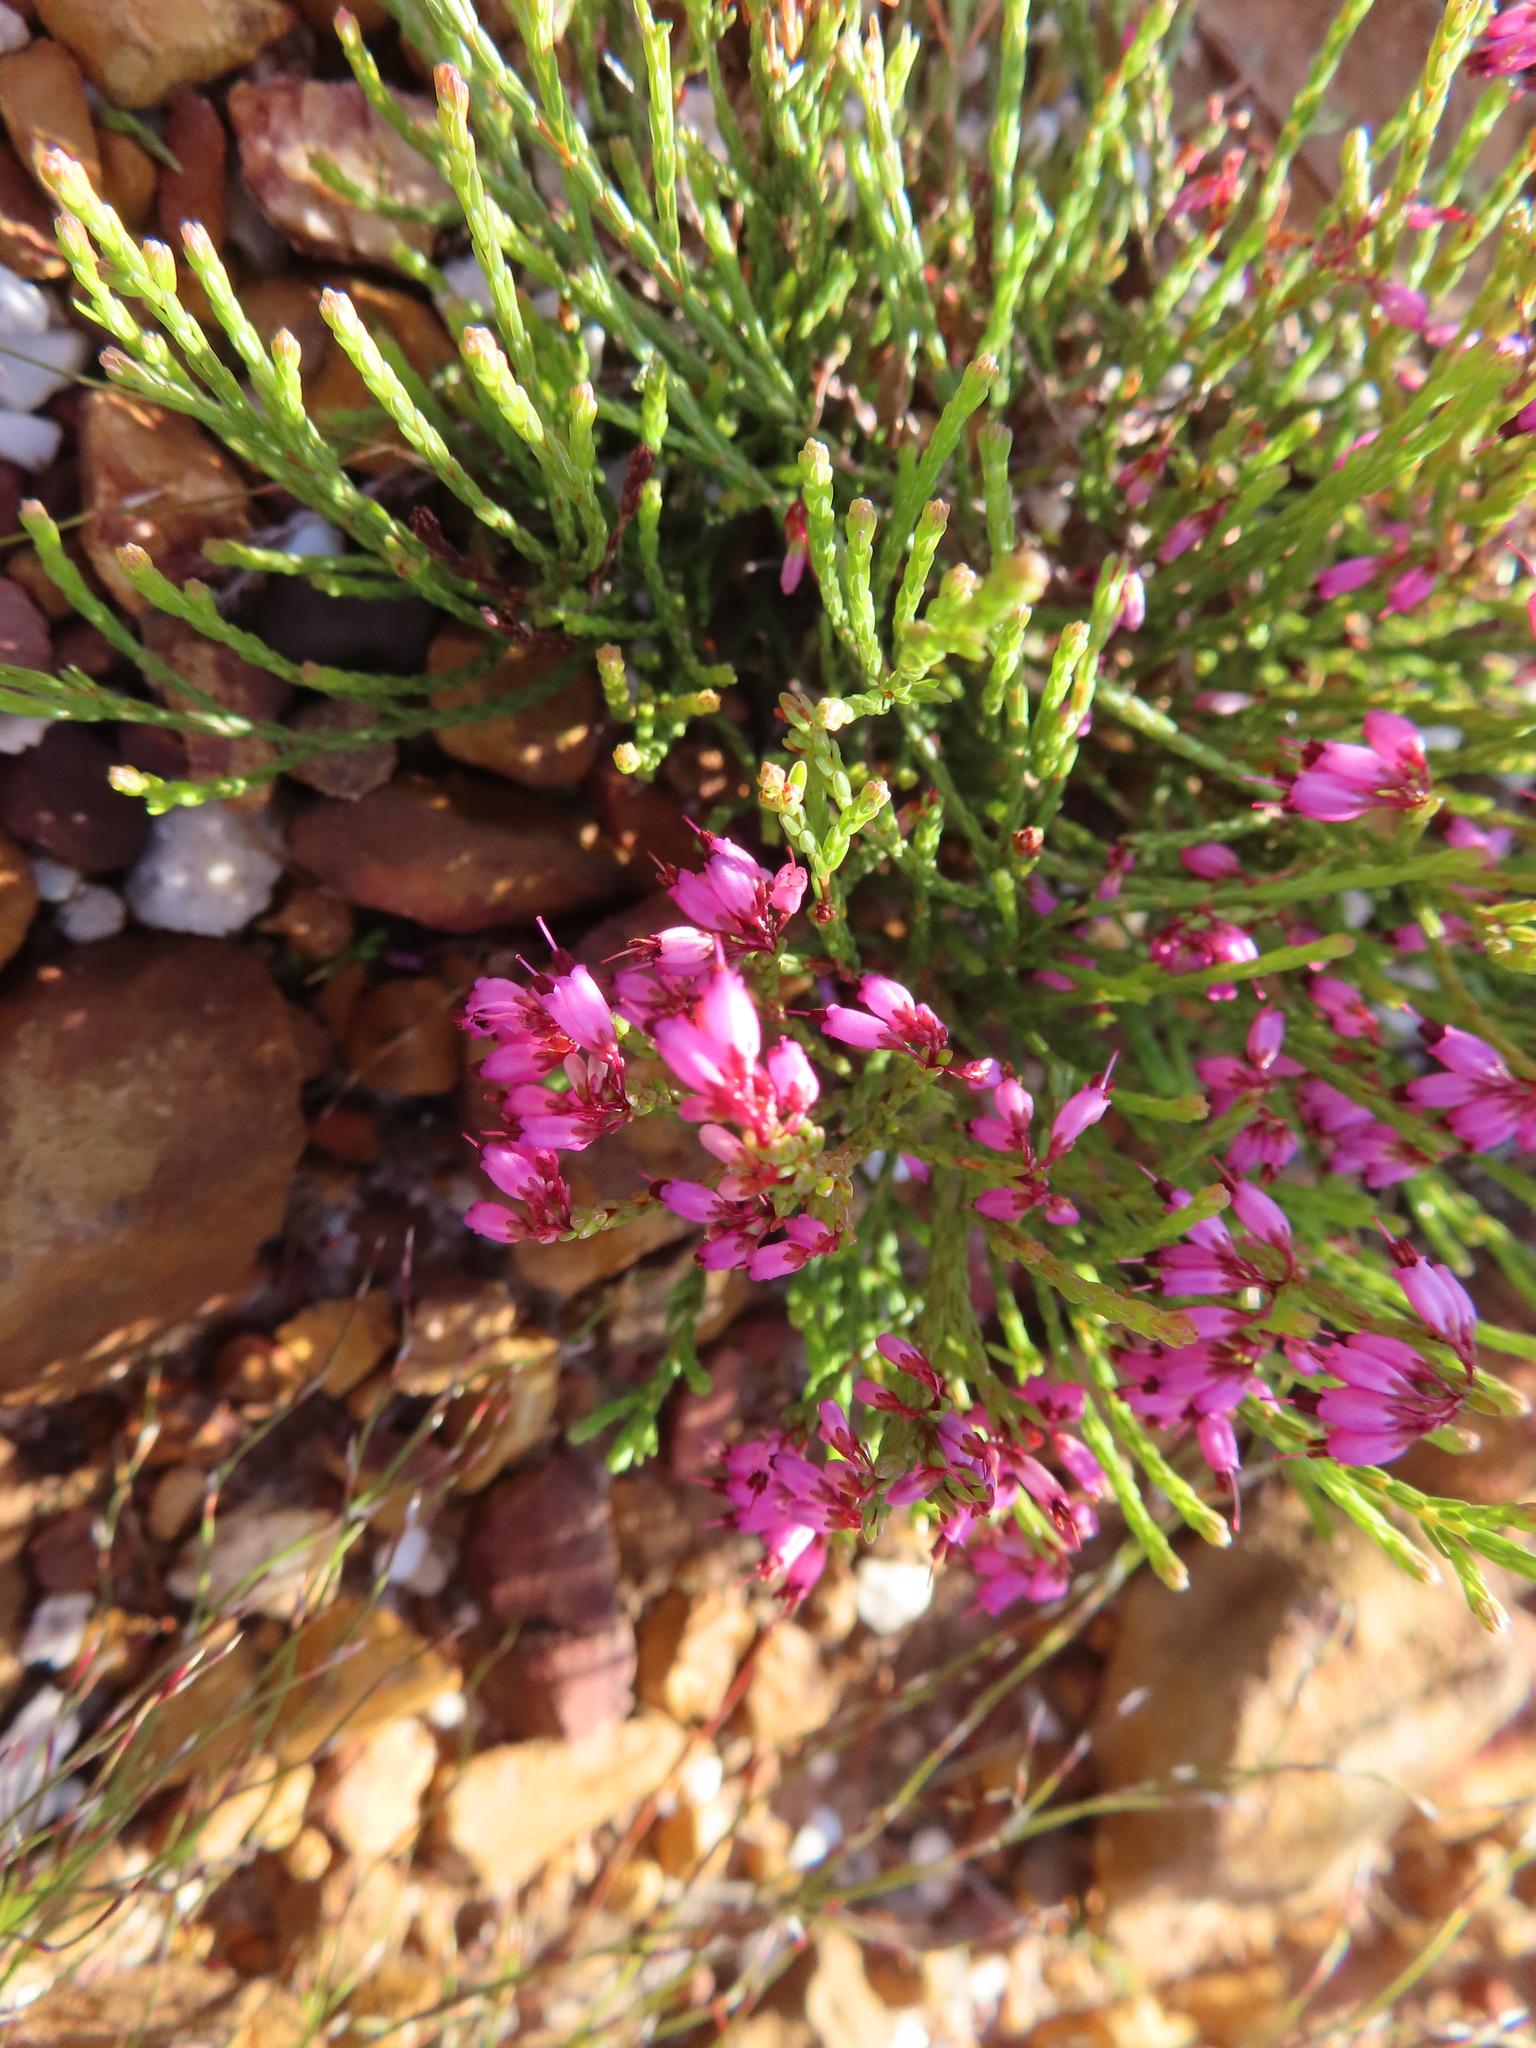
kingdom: Plantae
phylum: Tracheophyta
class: Magnoliopsida
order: Ericales
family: Ericaceae
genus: Erica
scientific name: Erica equisetifolia
